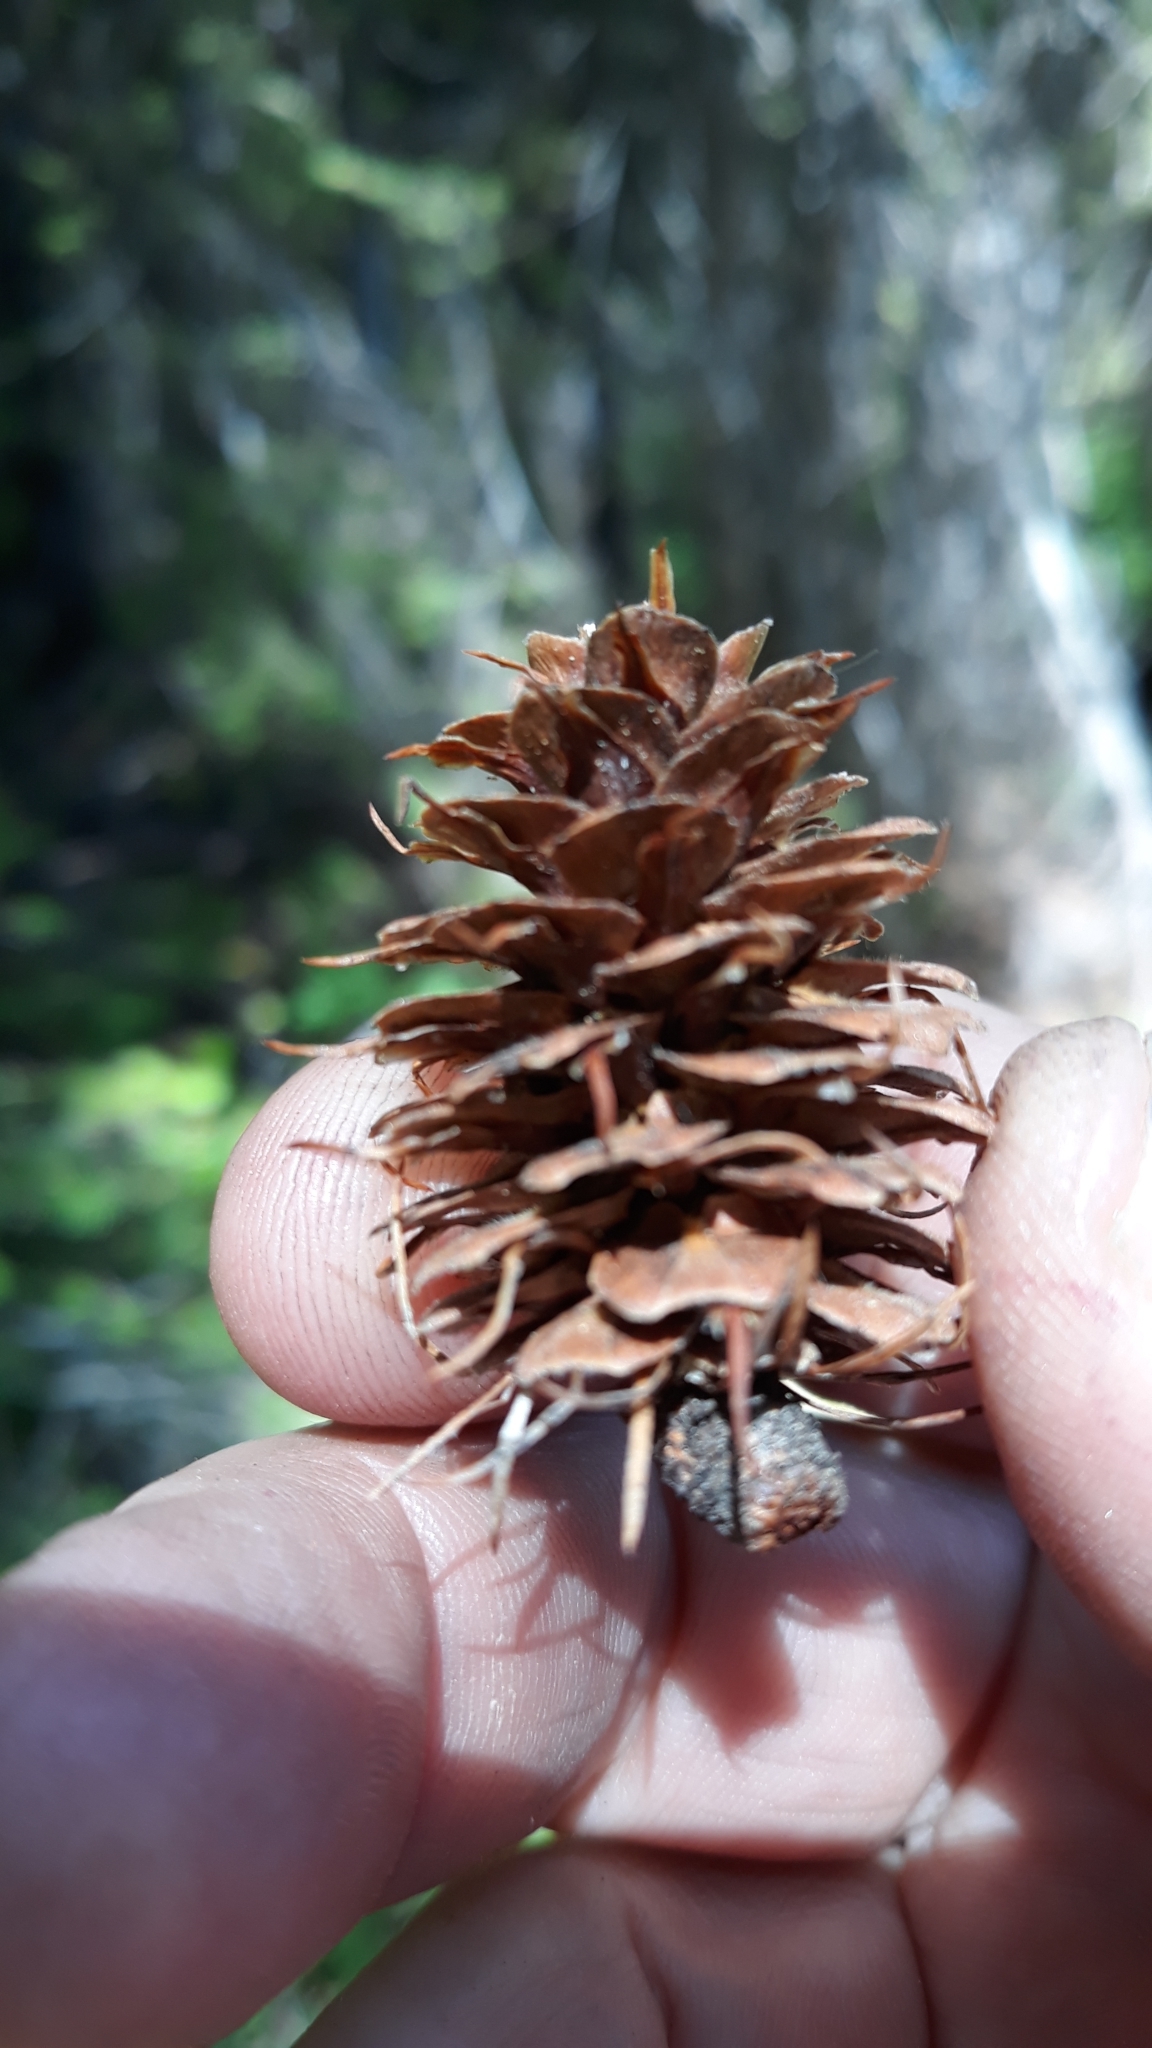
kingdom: Plantae
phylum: Tracheophyta
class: Pinopsida
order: Pinales
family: Pinaceae
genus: Larix
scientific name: Larix occidentalis
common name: Western larch
